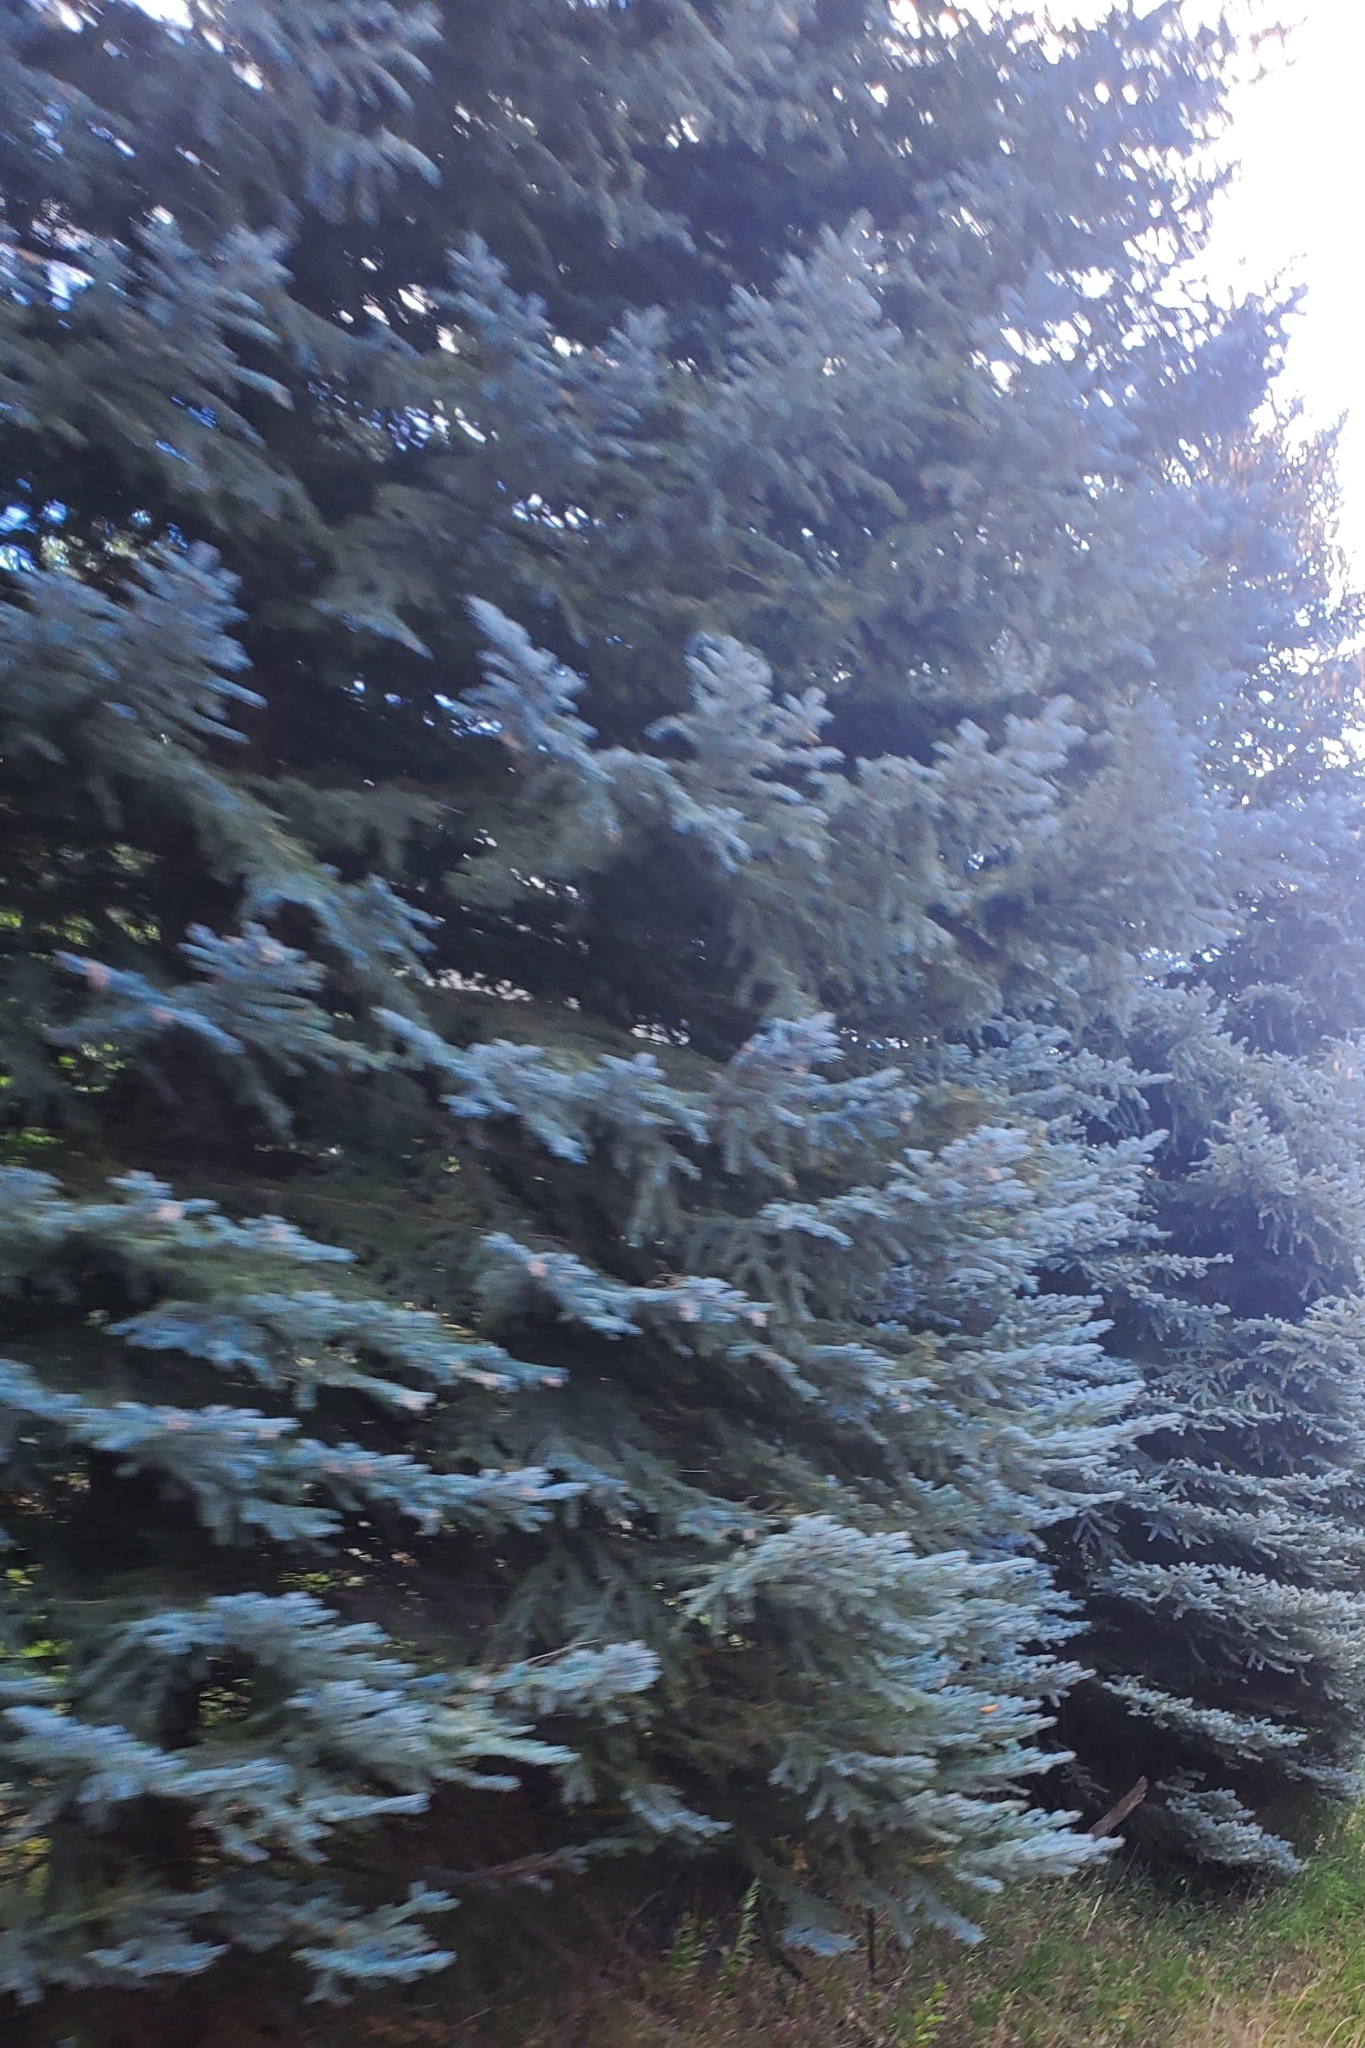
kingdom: Plantae
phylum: Tracheophyta
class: Pinopsida
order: Pinales
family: Pinaceae
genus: Picea
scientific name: Picea pungens
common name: Colorado spruce
